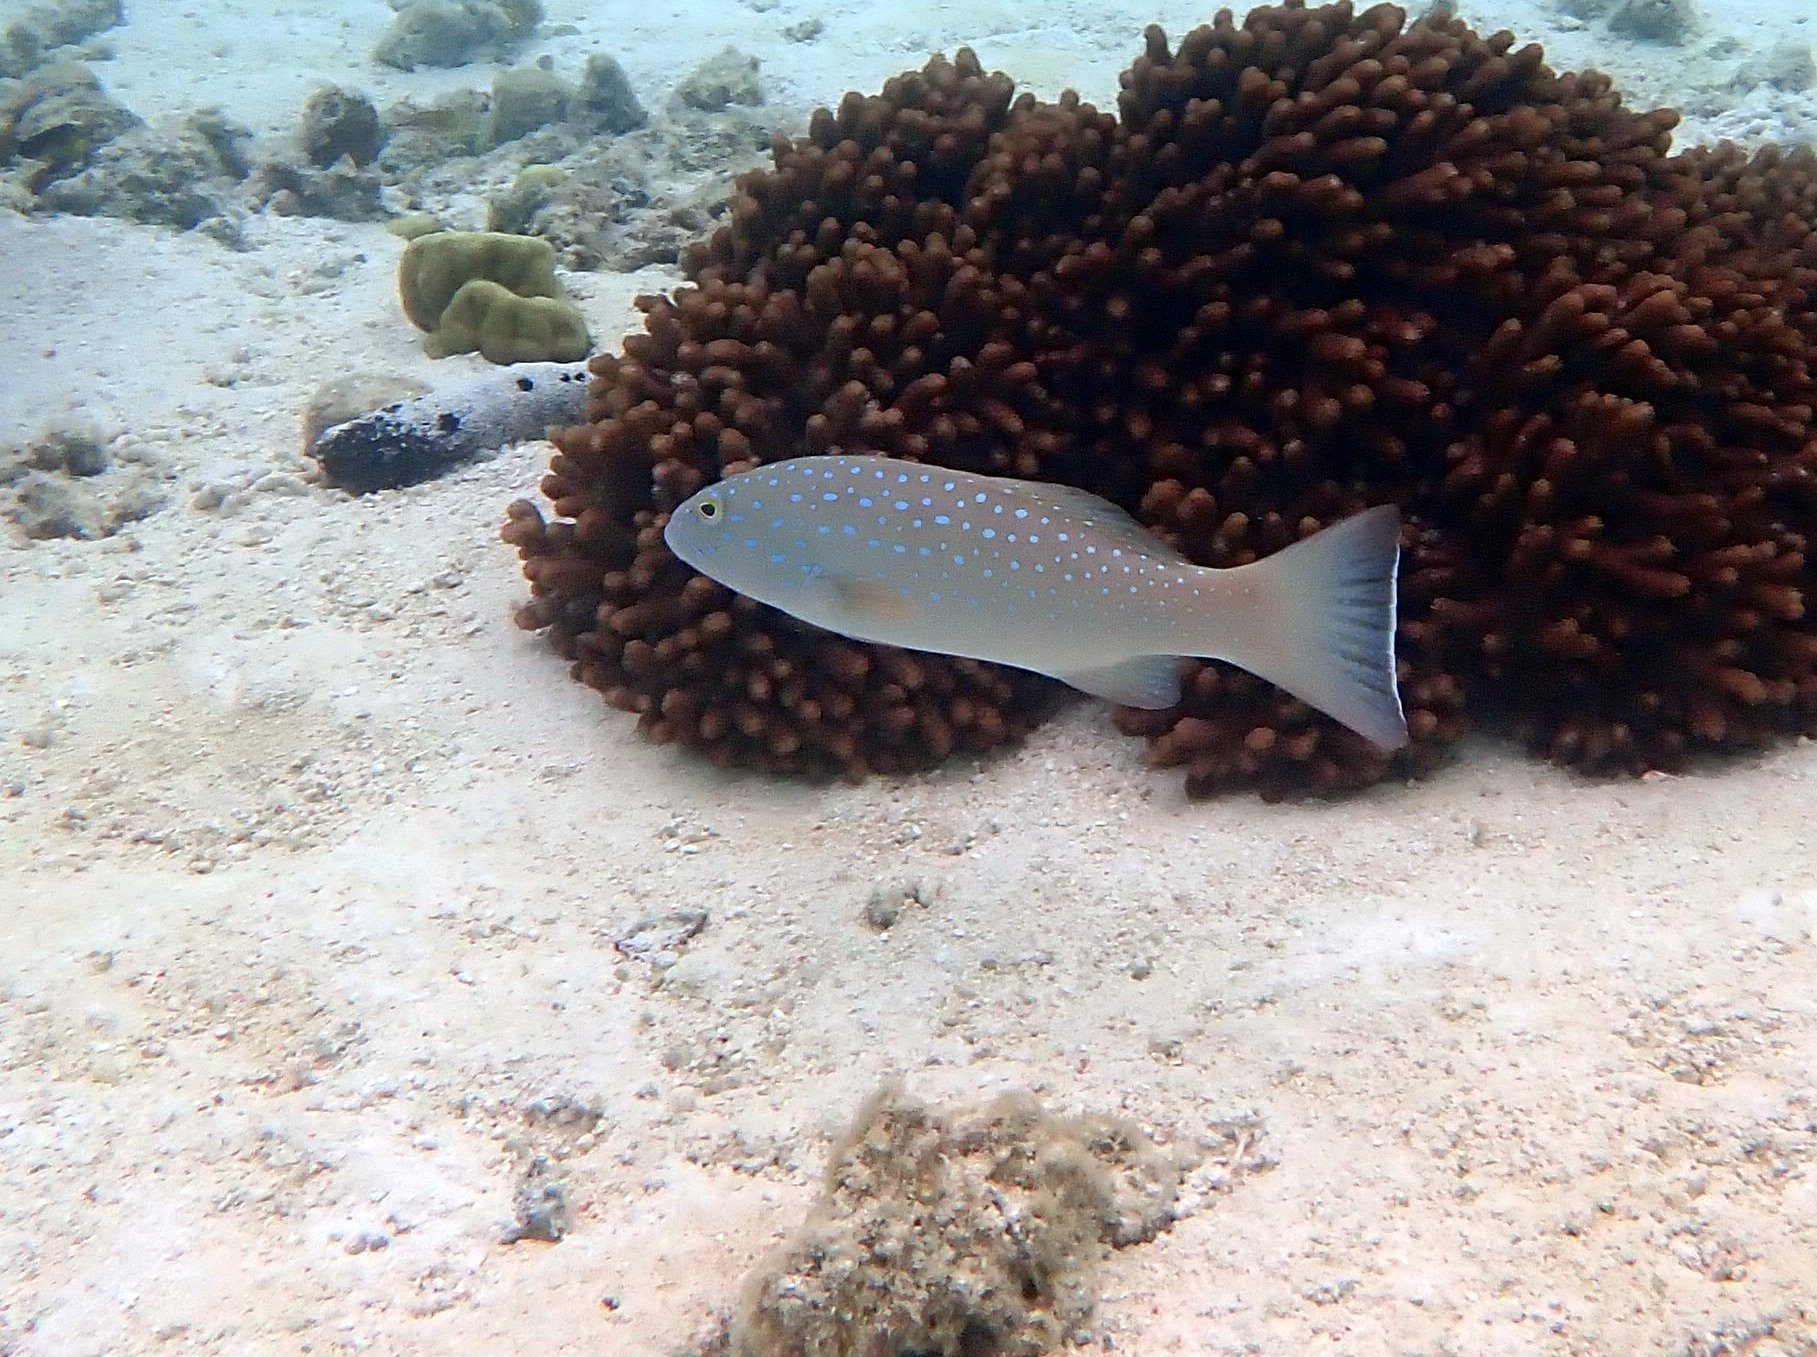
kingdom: Animalia
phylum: Chordata
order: Perciformes
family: Serranidae
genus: Plectropomus
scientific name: Plectropomus maculatus
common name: Spotted coralgrouper
